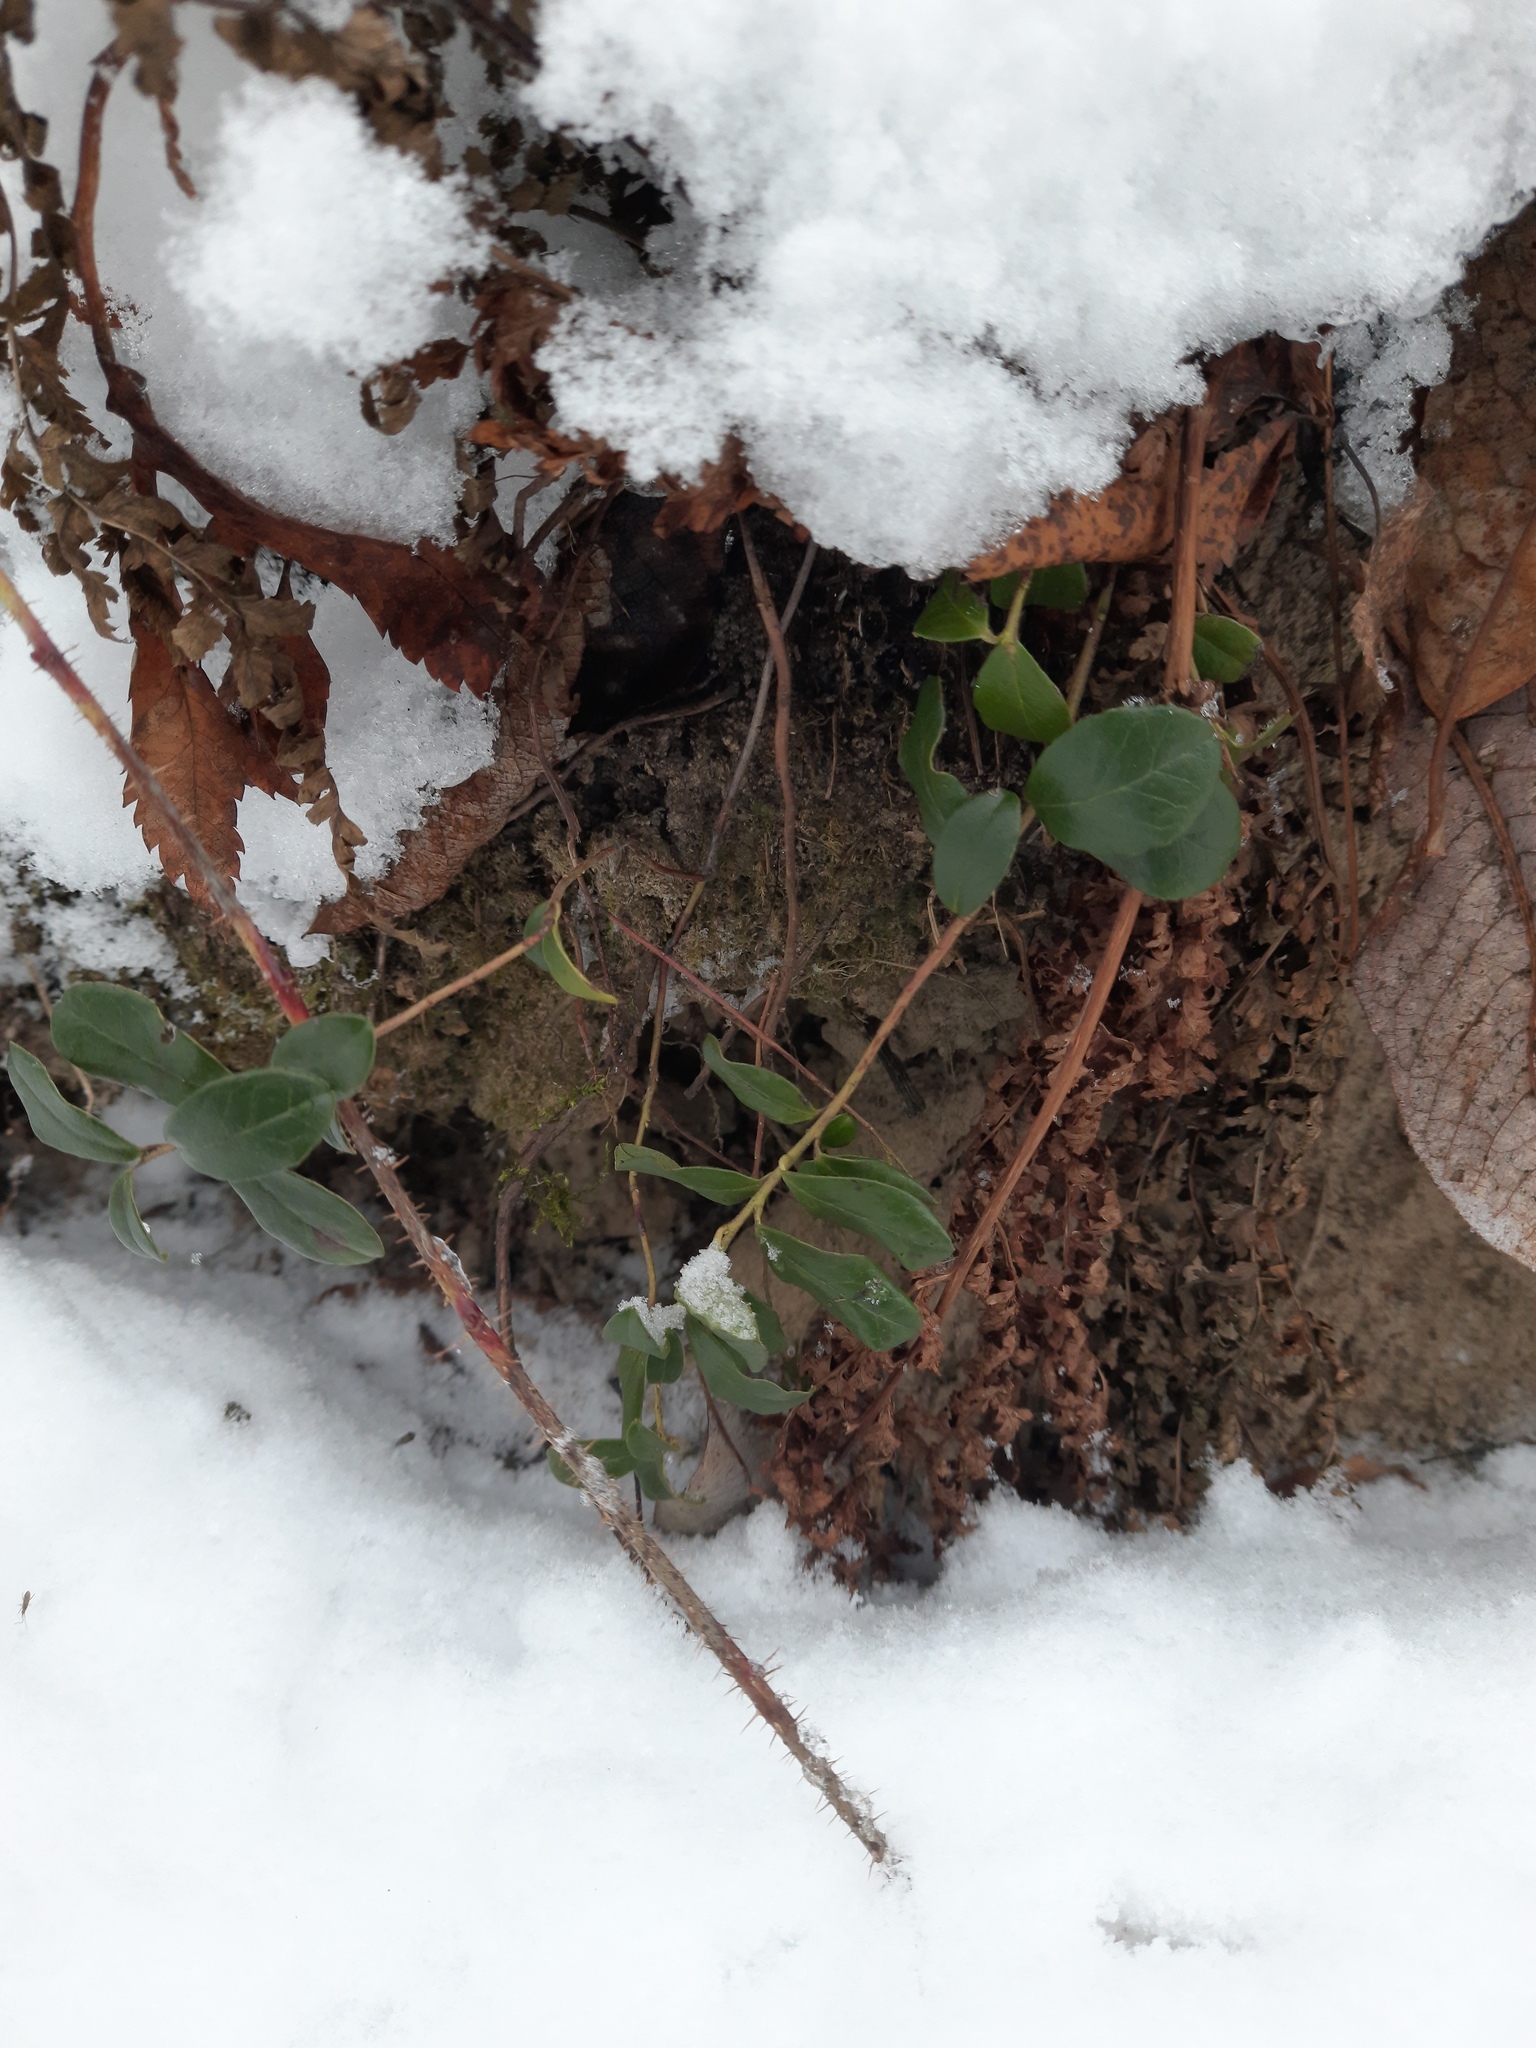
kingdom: Plantae
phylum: Tracheophyta
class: Magnoliopsida
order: Ericales
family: Ericaceae
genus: Vaccinium
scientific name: Vaccinium vitis-idaea
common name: Cowberry
